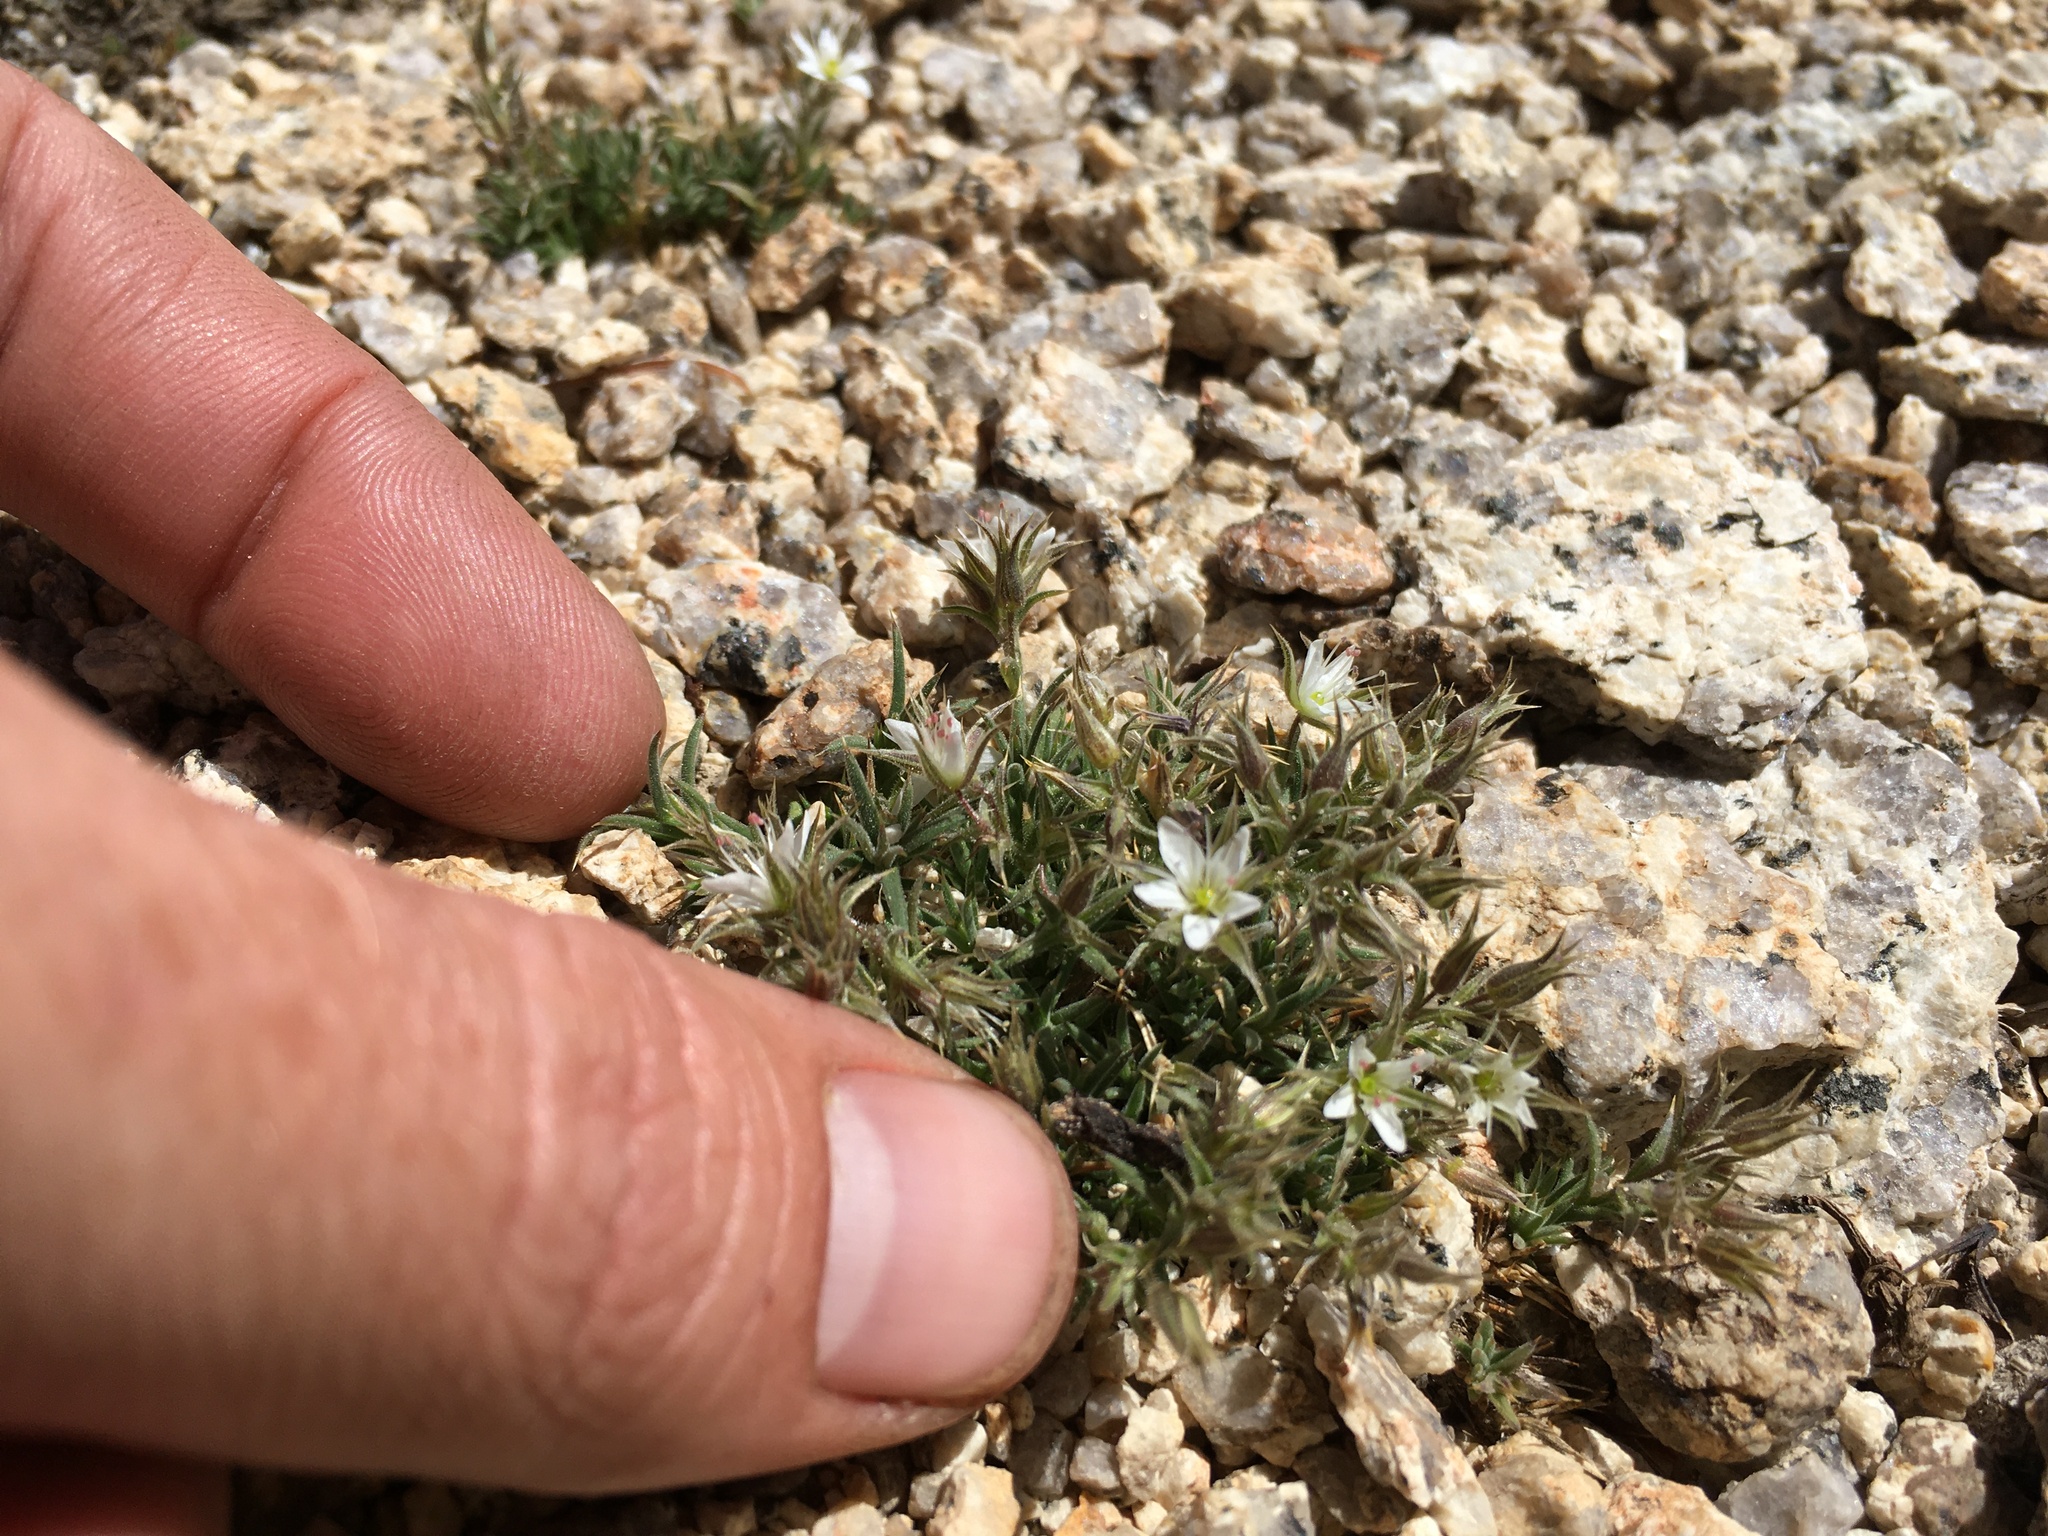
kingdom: Plantae
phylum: Tracheophyta
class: Magnoliopsida
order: Caryophyllales
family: Caryophyllaceae
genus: Sabulina
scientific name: Sabulina nuttallii
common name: Nuttall's stitchwort
